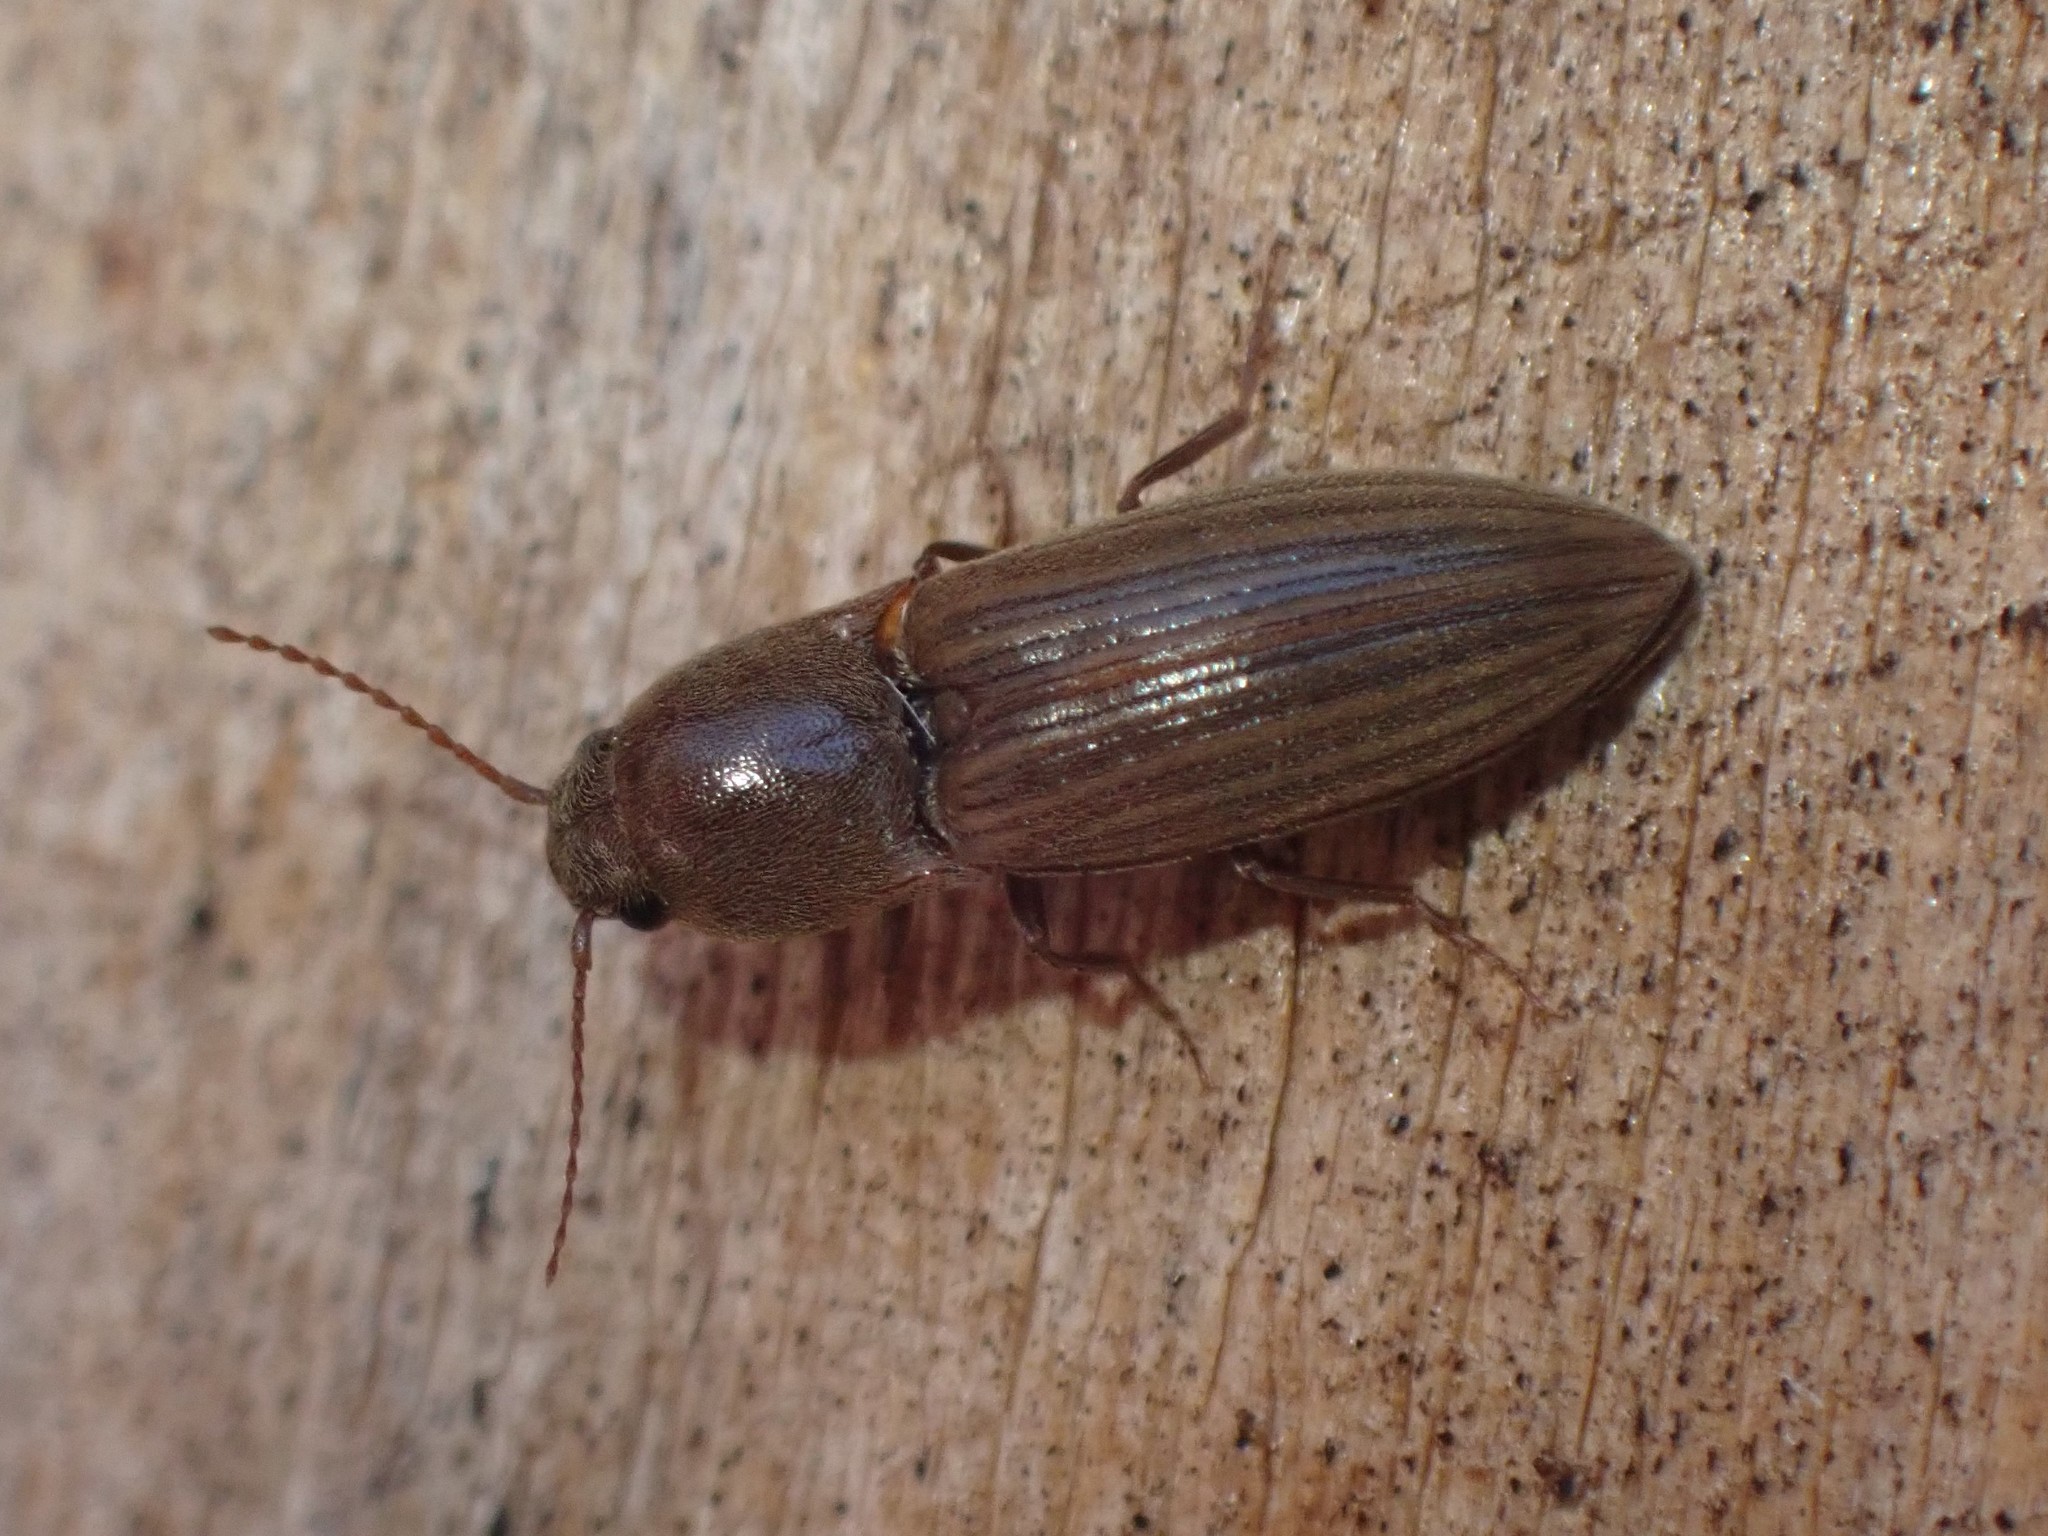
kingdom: Animalia
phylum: Arthropoda
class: Insecta
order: Coleoptera
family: Elateridae
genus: Agriotes
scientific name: Agriotes lineatus
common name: Lined click beetle
